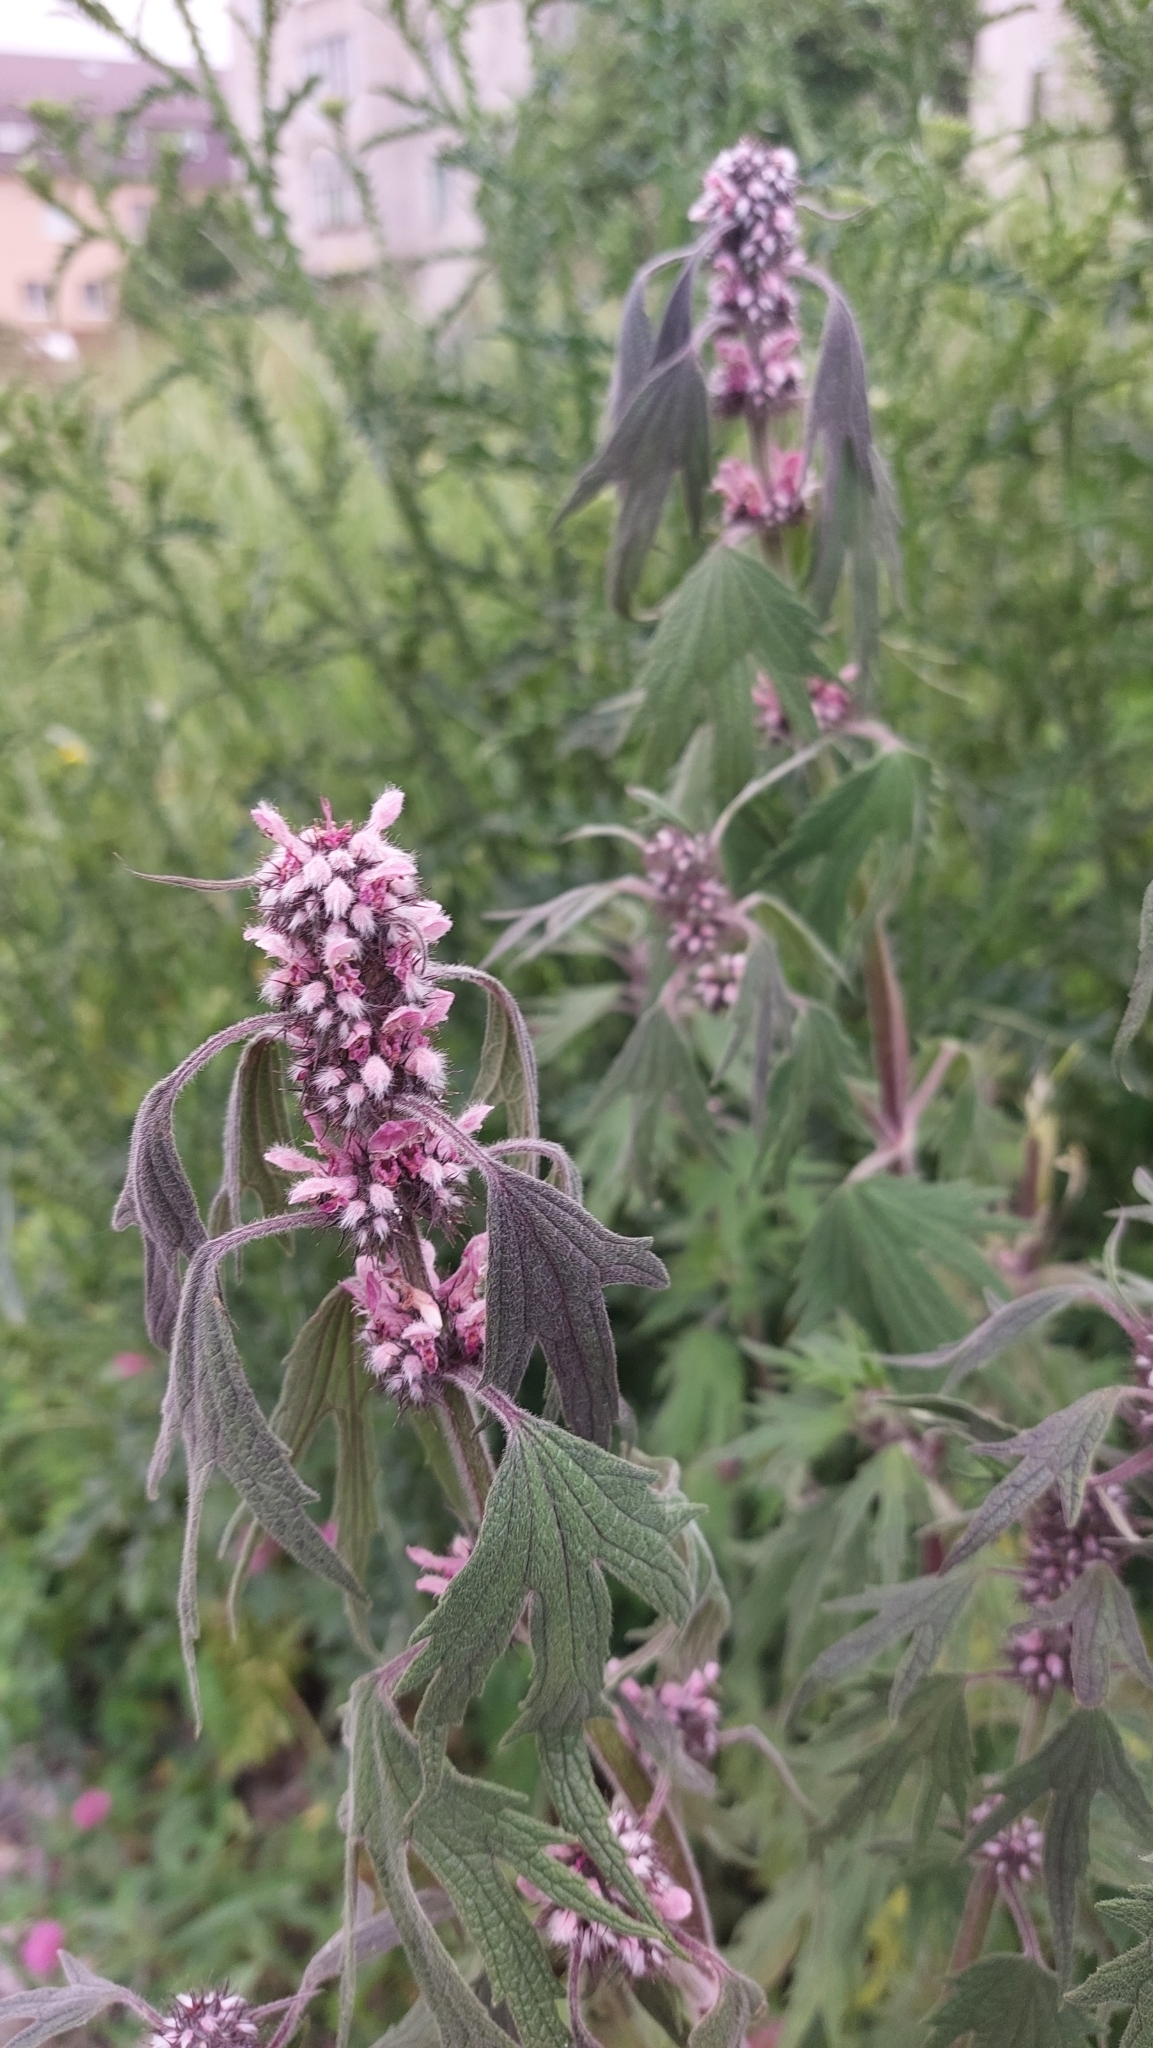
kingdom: Plantae
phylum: Tracheophyta
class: Magnoliopsida
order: Lamiales
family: Lamiaceae
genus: Leonurus
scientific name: Leonurus quinquelobatus
